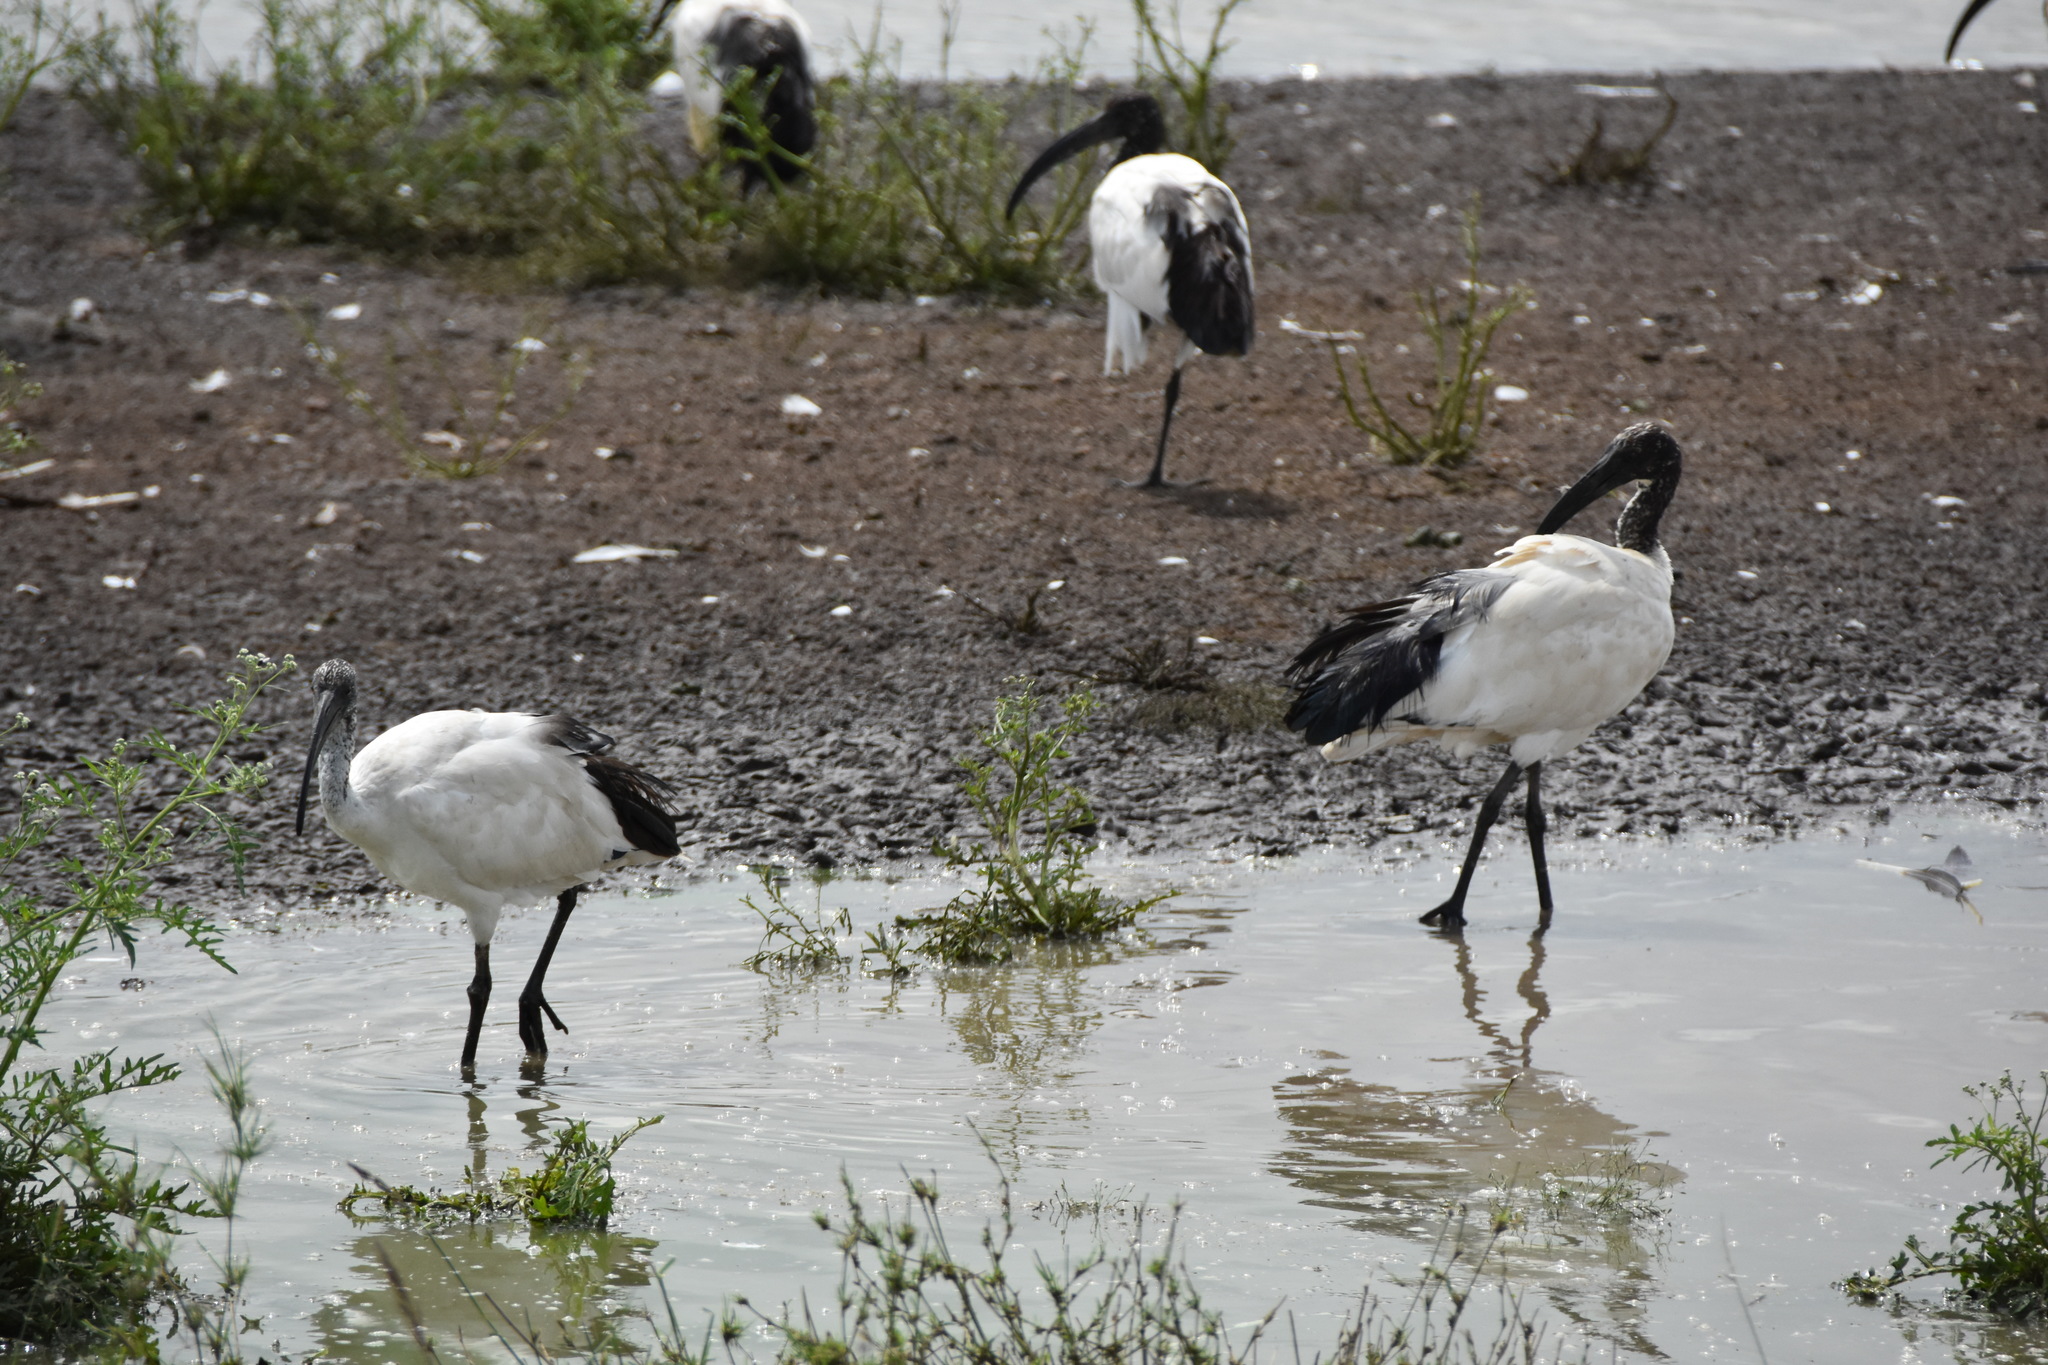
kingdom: Animalia
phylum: Chordata
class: Aves
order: Pelecaniformes
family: Threskiornithidae
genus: Threskiornis
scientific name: Threskiornis aethiopicus
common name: Sacred ibis
